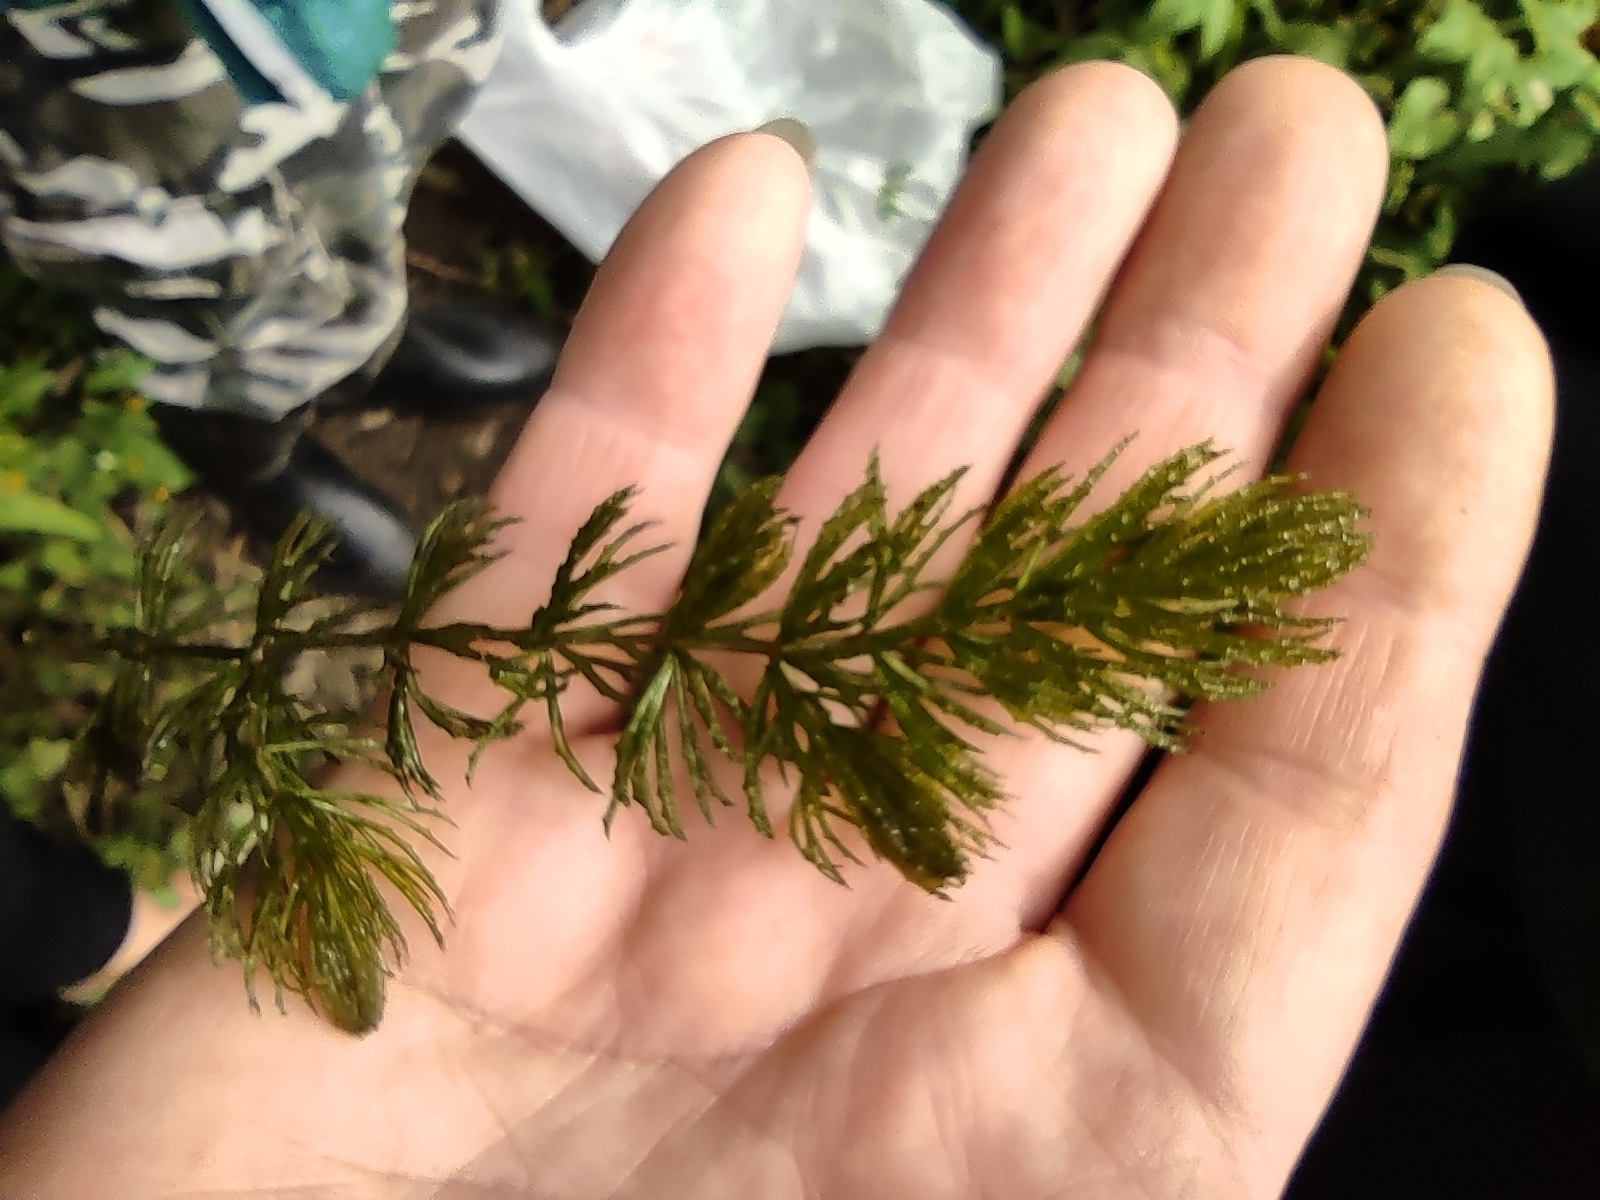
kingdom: Plantae
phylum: Tracheophyta
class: Magnoliopsida
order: Ceratophyllales
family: Ceratophyllaceae
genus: Ceratophyllum
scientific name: Ceratophyllum demersum
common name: Rigid hornwort
